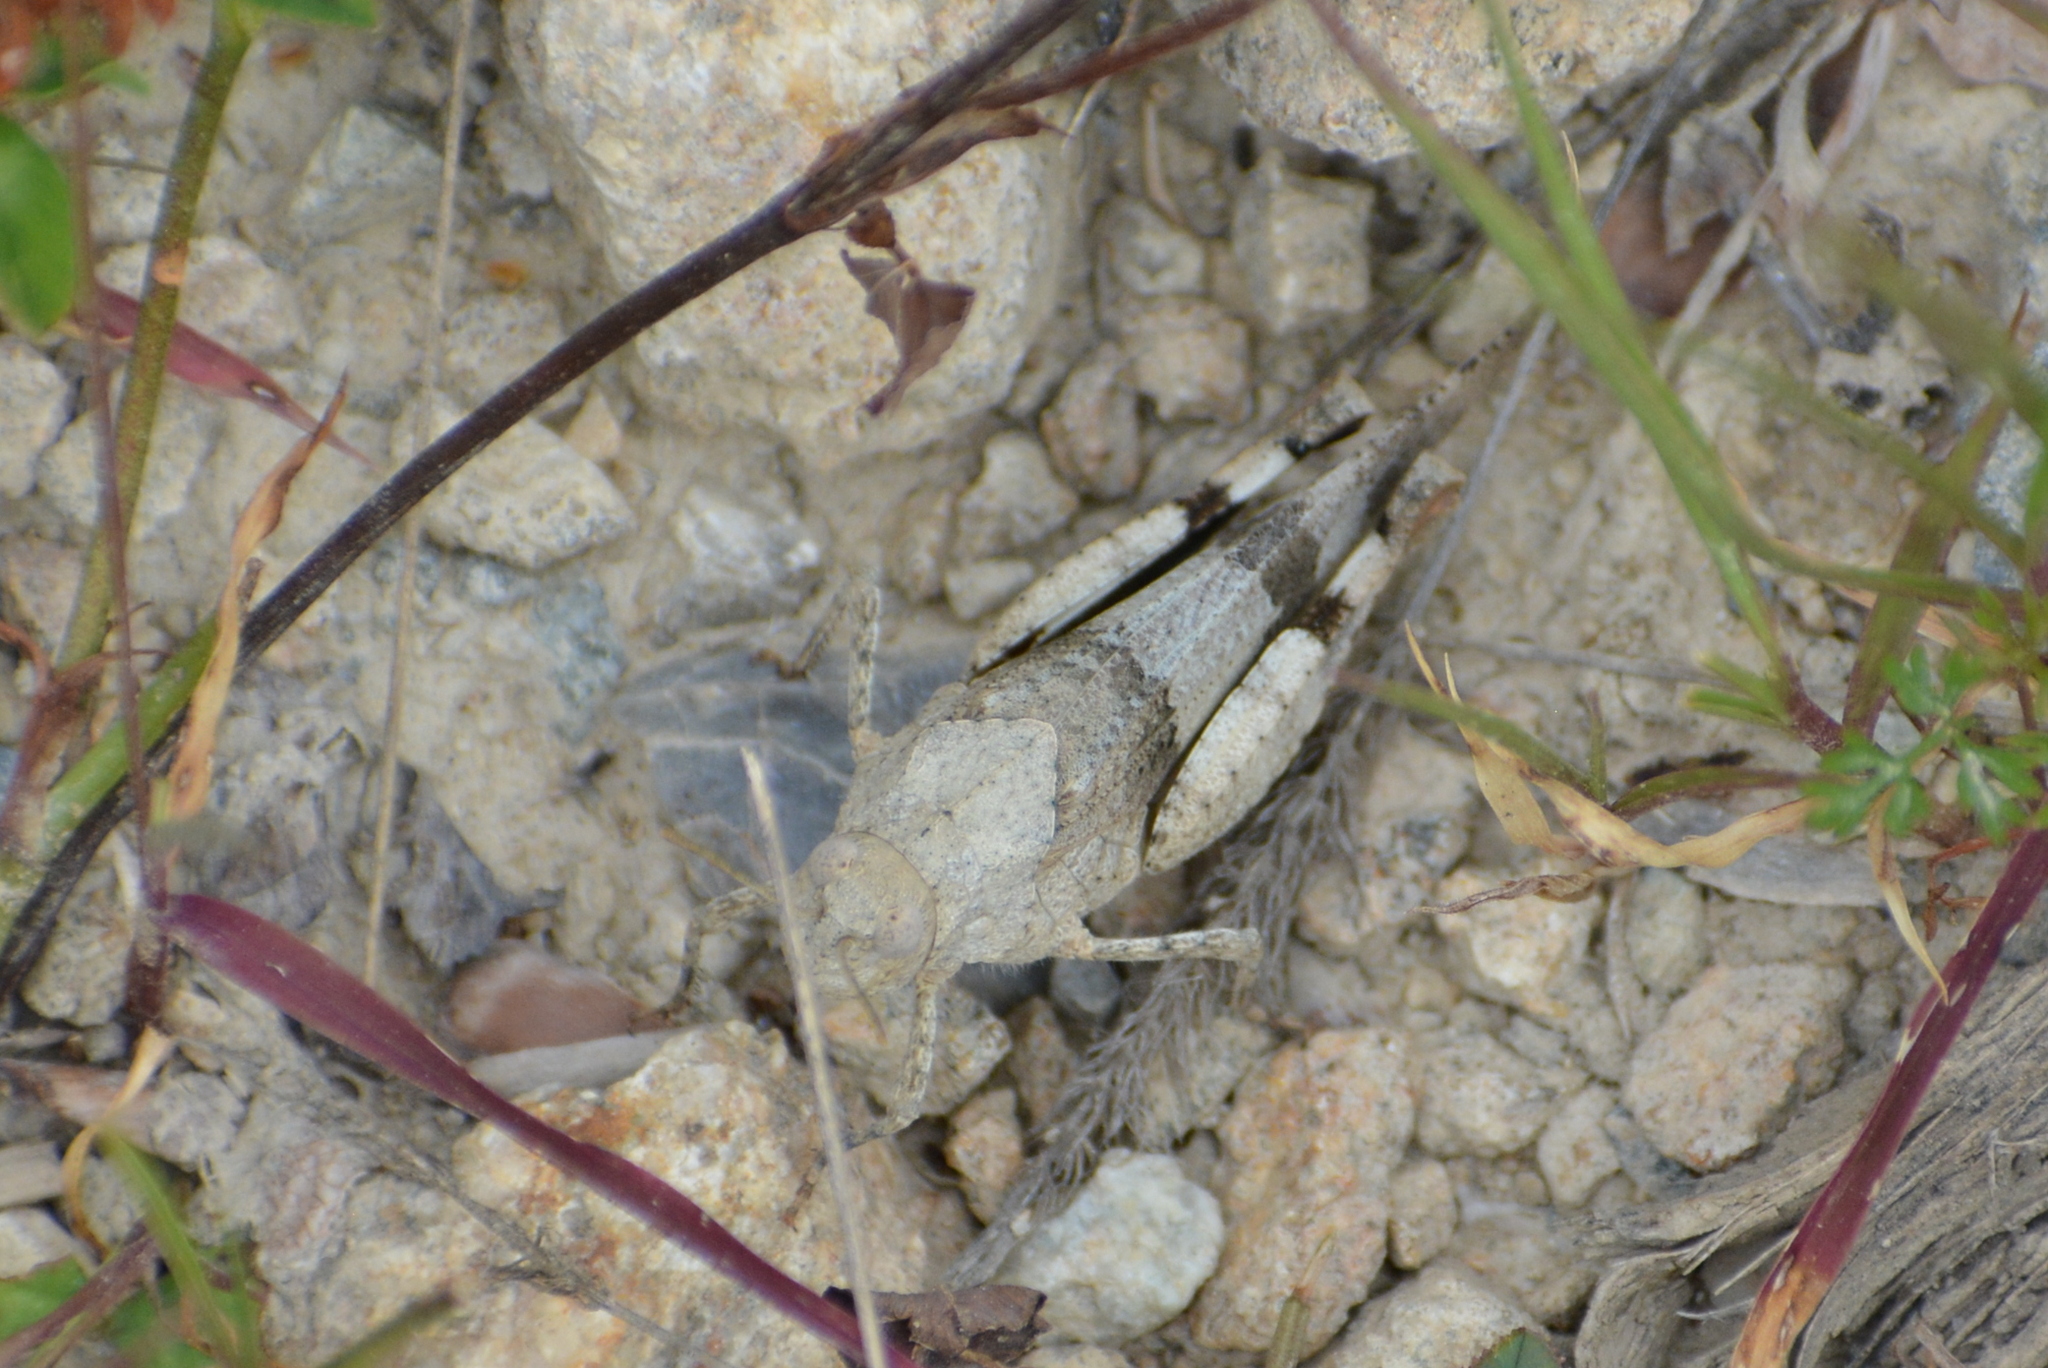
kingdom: Animalia
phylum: Arthropoda
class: Insecta
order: Orthoptera
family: Acrididae
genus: Oedipoda
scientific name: Oedipoda caerulescens
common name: Blue-winged grasshopper
